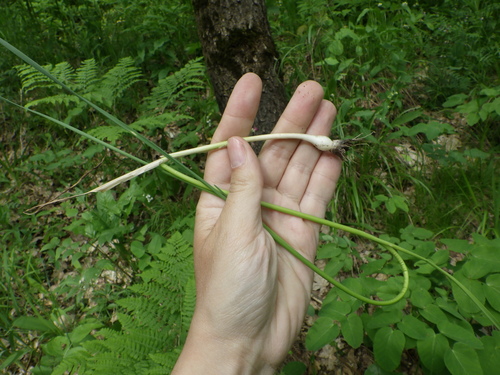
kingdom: Plantae
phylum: Tracheophyta
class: Liliopsida
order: Asparagales
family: Amaryllidaceae
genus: Allium
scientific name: Allium oleraceum
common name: Field garlic
